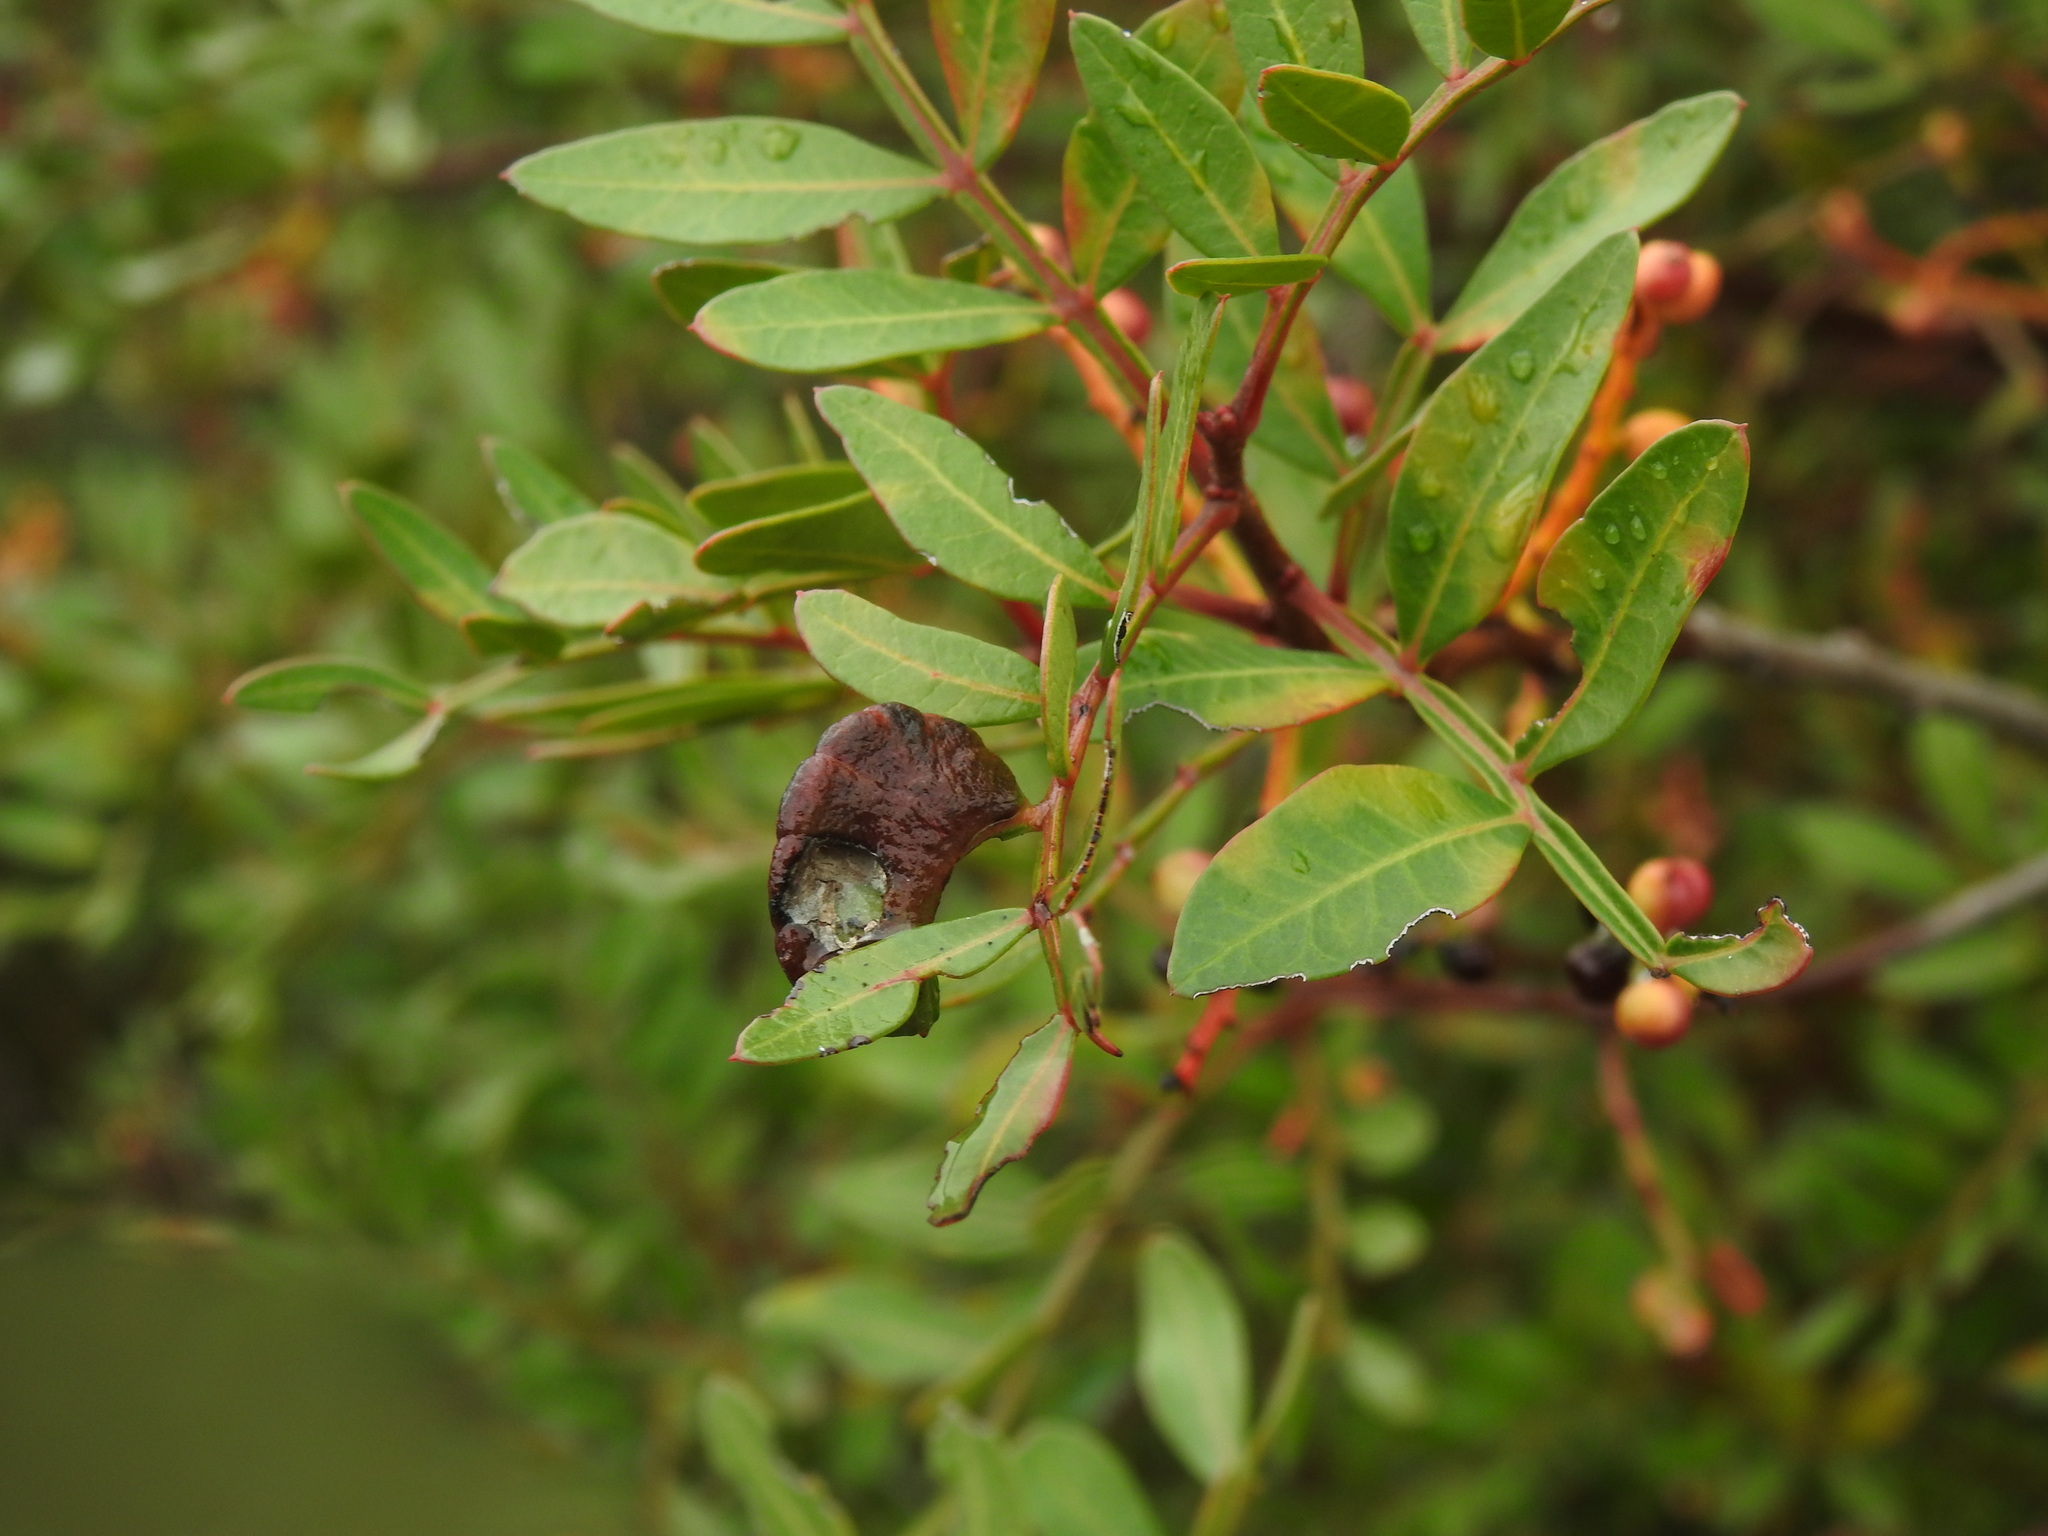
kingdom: Animalia
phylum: Arthropoda
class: Insecta
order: Hemiptera
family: Aphididae
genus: Aploneura
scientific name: Aploneura lentisci
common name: Mealy grass root aphid
